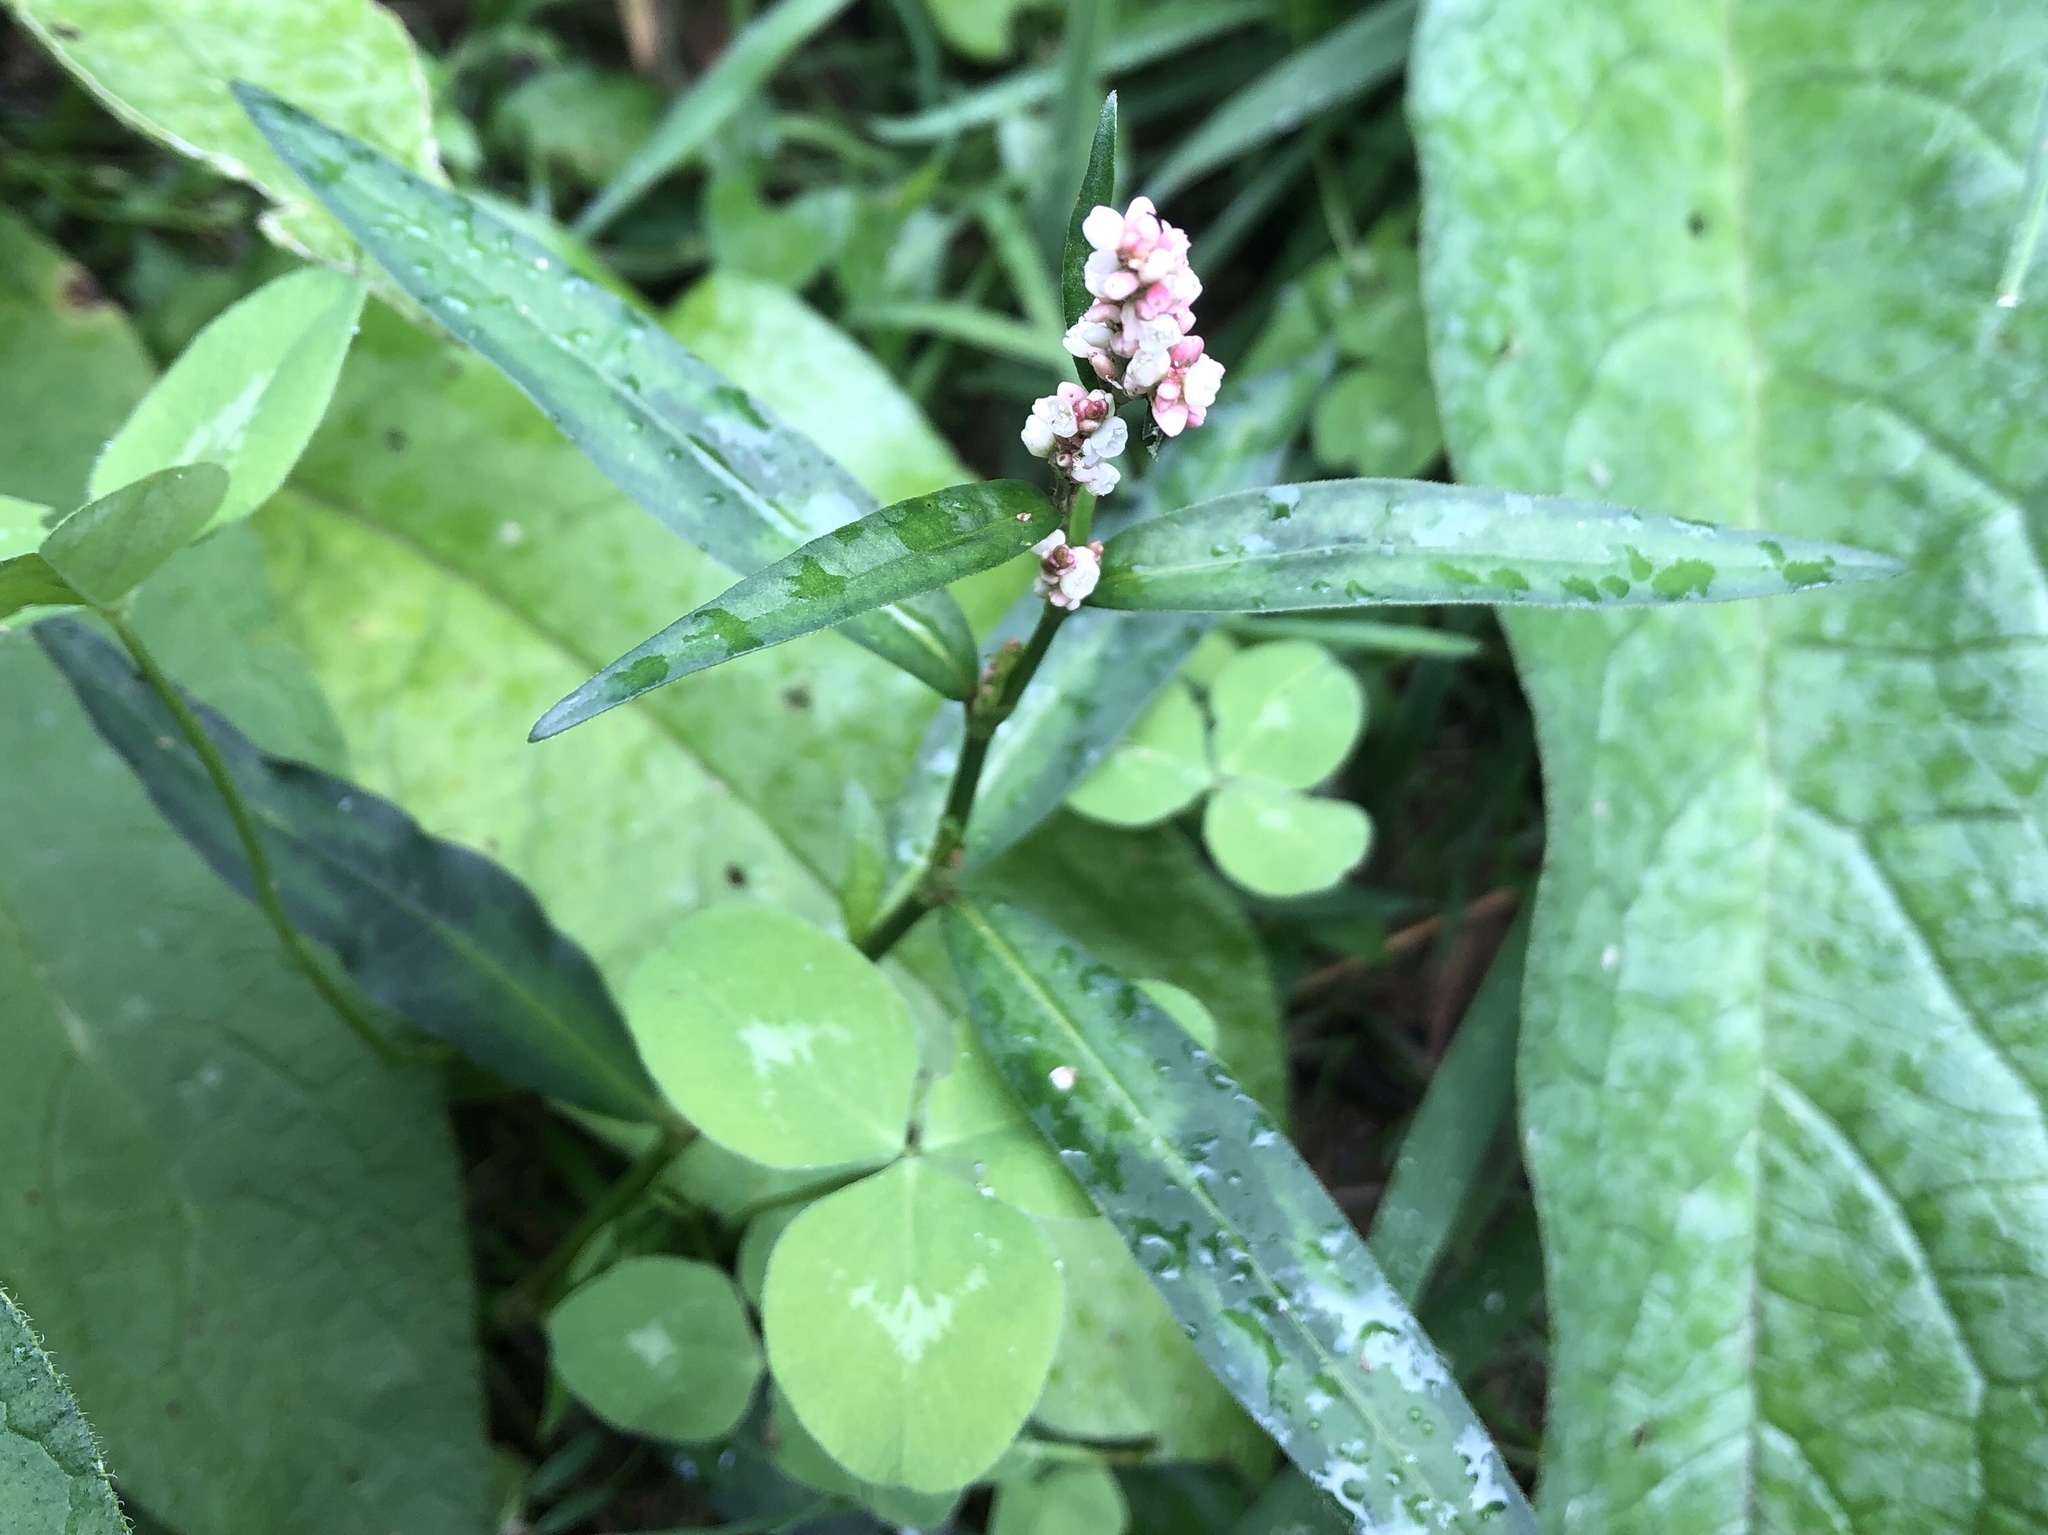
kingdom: Plantae
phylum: Tracheophyta
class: Magnoliopsida
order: Caryophyllales
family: Polygonaceae
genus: Persicaria
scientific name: Persicaria maculosa
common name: Redshank
